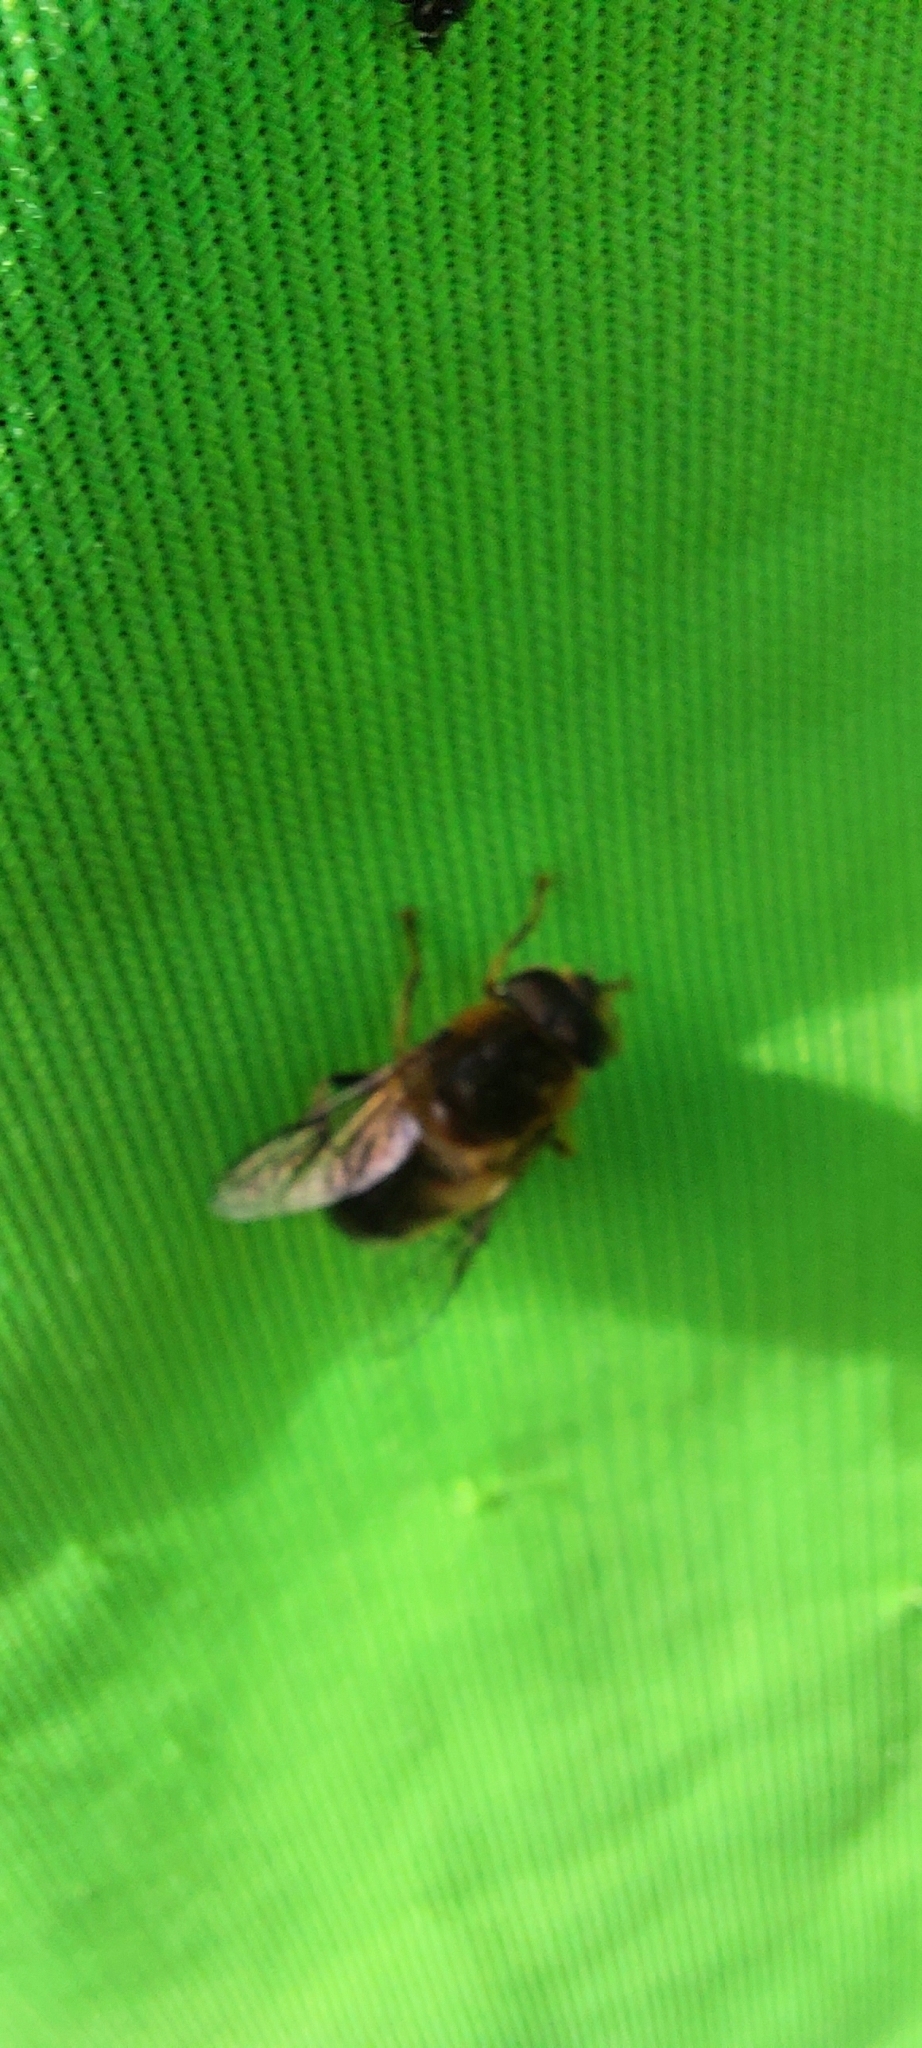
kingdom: Animalia
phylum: Arthropoda
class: Insecta
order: Diptera
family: Syrphidae
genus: Eristalis
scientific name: Eristalis pertinax
